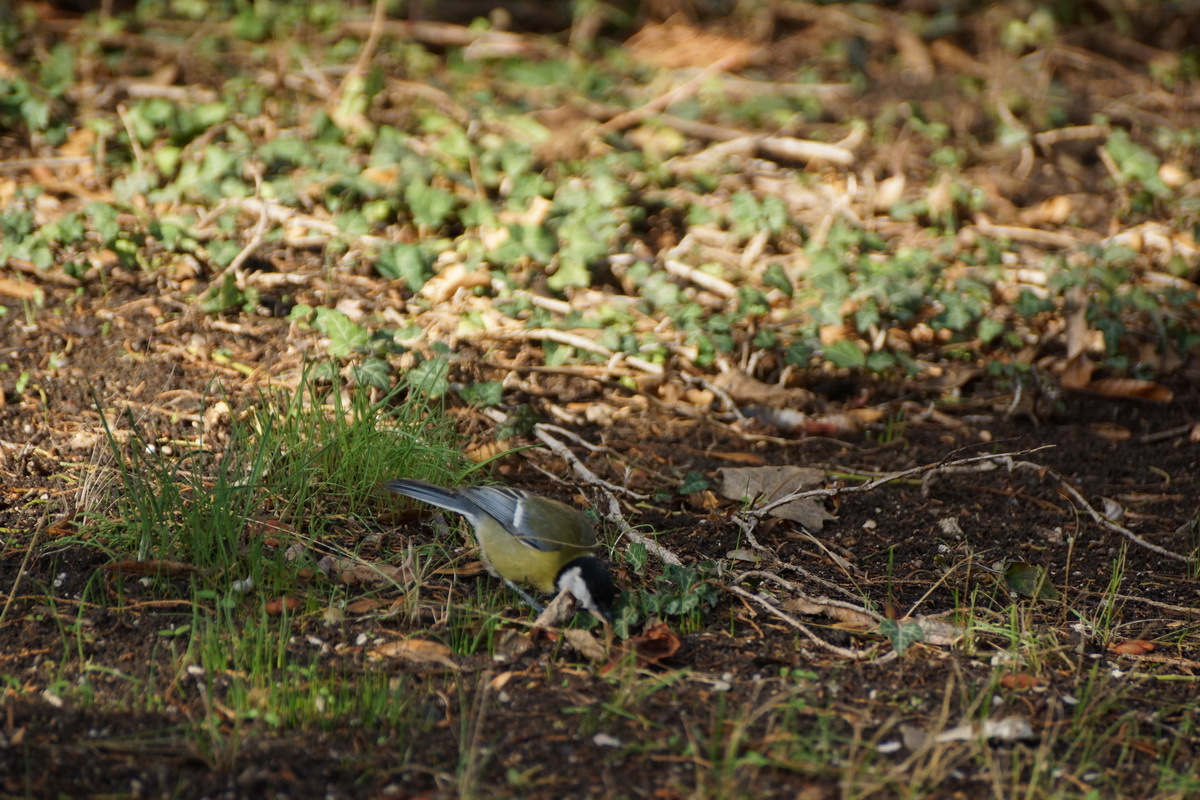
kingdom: Animalia
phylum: Chordata
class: Aves
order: Passeriformes
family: Paridae
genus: Parus
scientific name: Parus major
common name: Great tit
